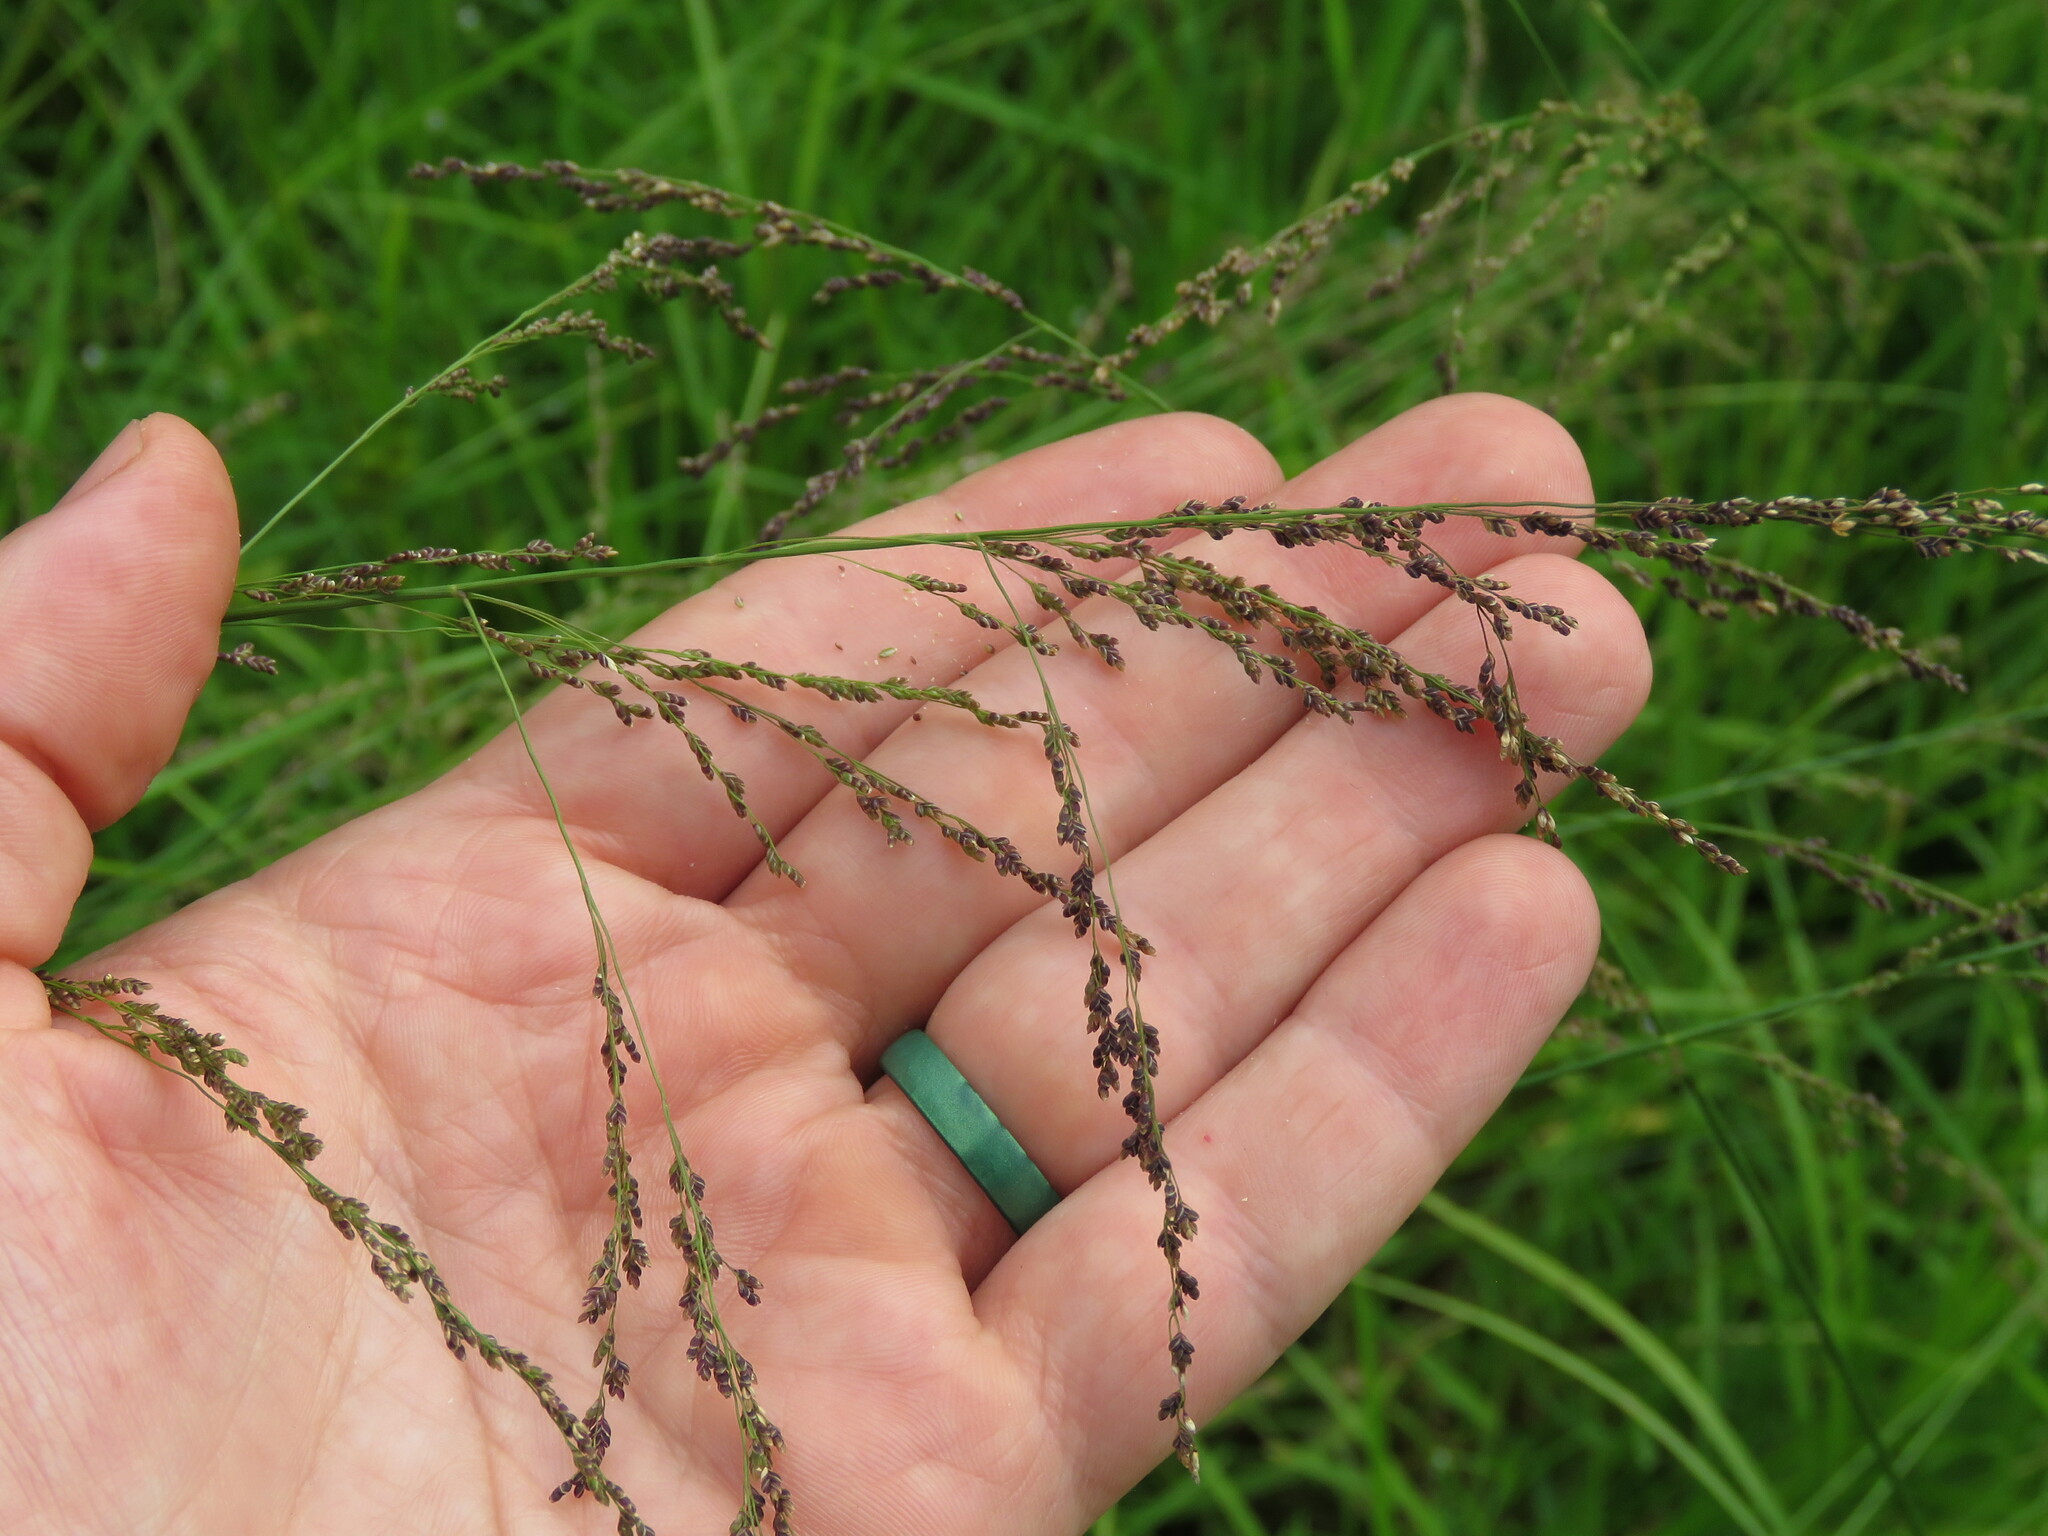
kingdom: Plantae
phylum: Tracheophyta
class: Liliopsida
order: Poales
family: Poaceae
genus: Glyceria
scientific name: Glyceria striata
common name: Fowl manna grass
